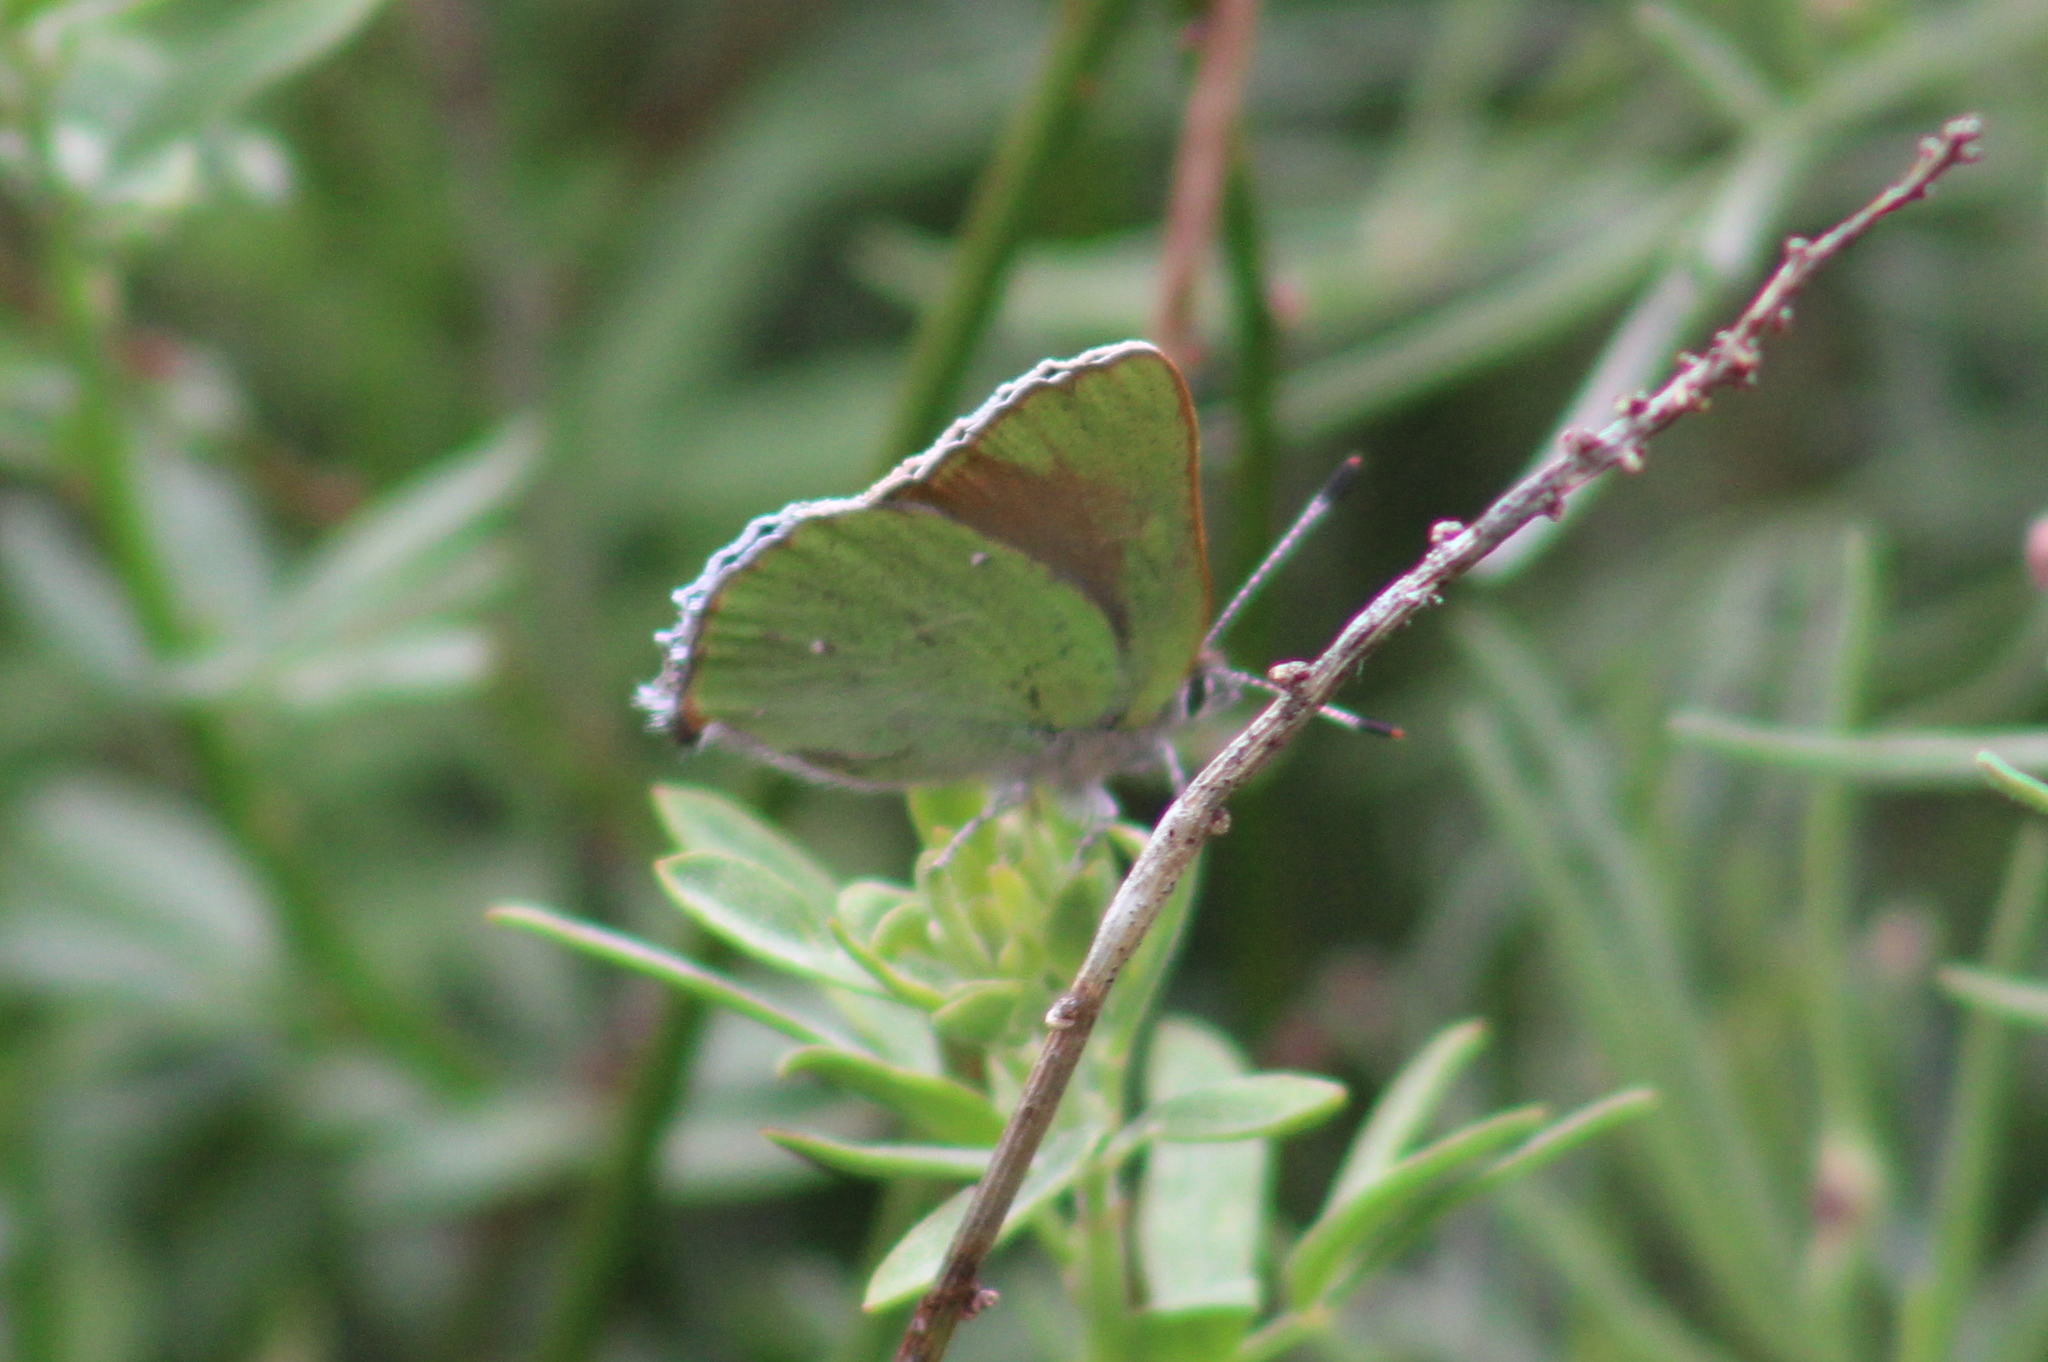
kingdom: Animalia
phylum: Arthropoda
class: Insecta
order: Lepidoptera
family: Lycaenidae
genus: Callophrys
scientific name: Callophrys dumetorum
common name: Bramble hairstreak
